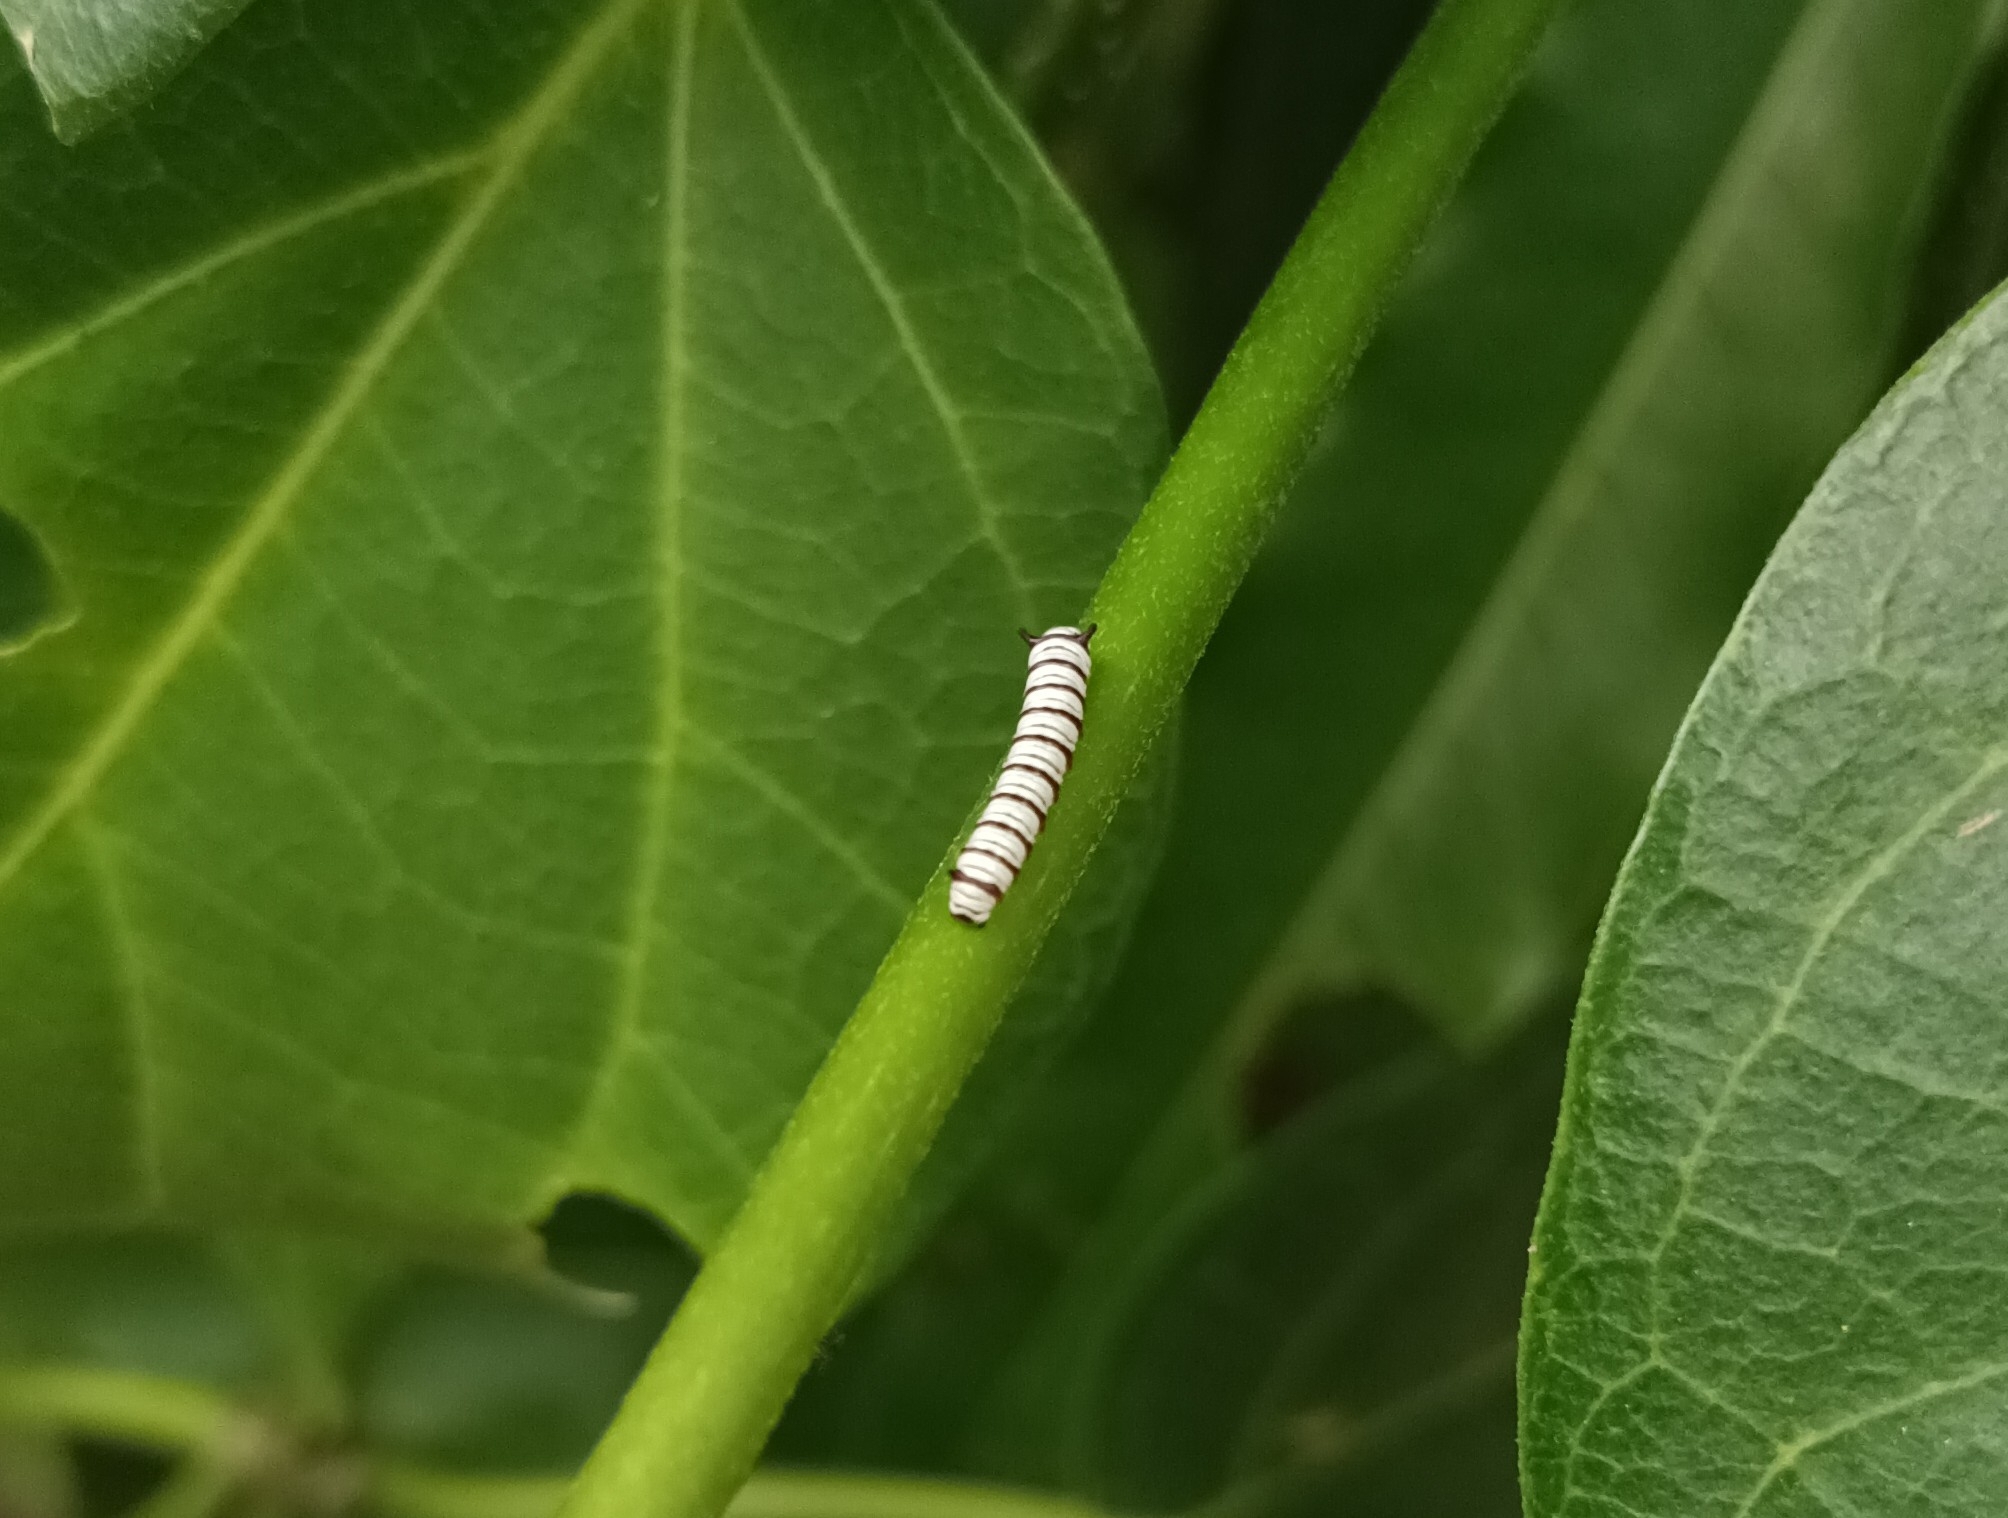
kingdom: Animalia
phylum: Arthropoda
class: Insecta
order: Lepidoptera
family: Nymphalidae
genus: Tirumala
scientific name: Tirumala limniace
